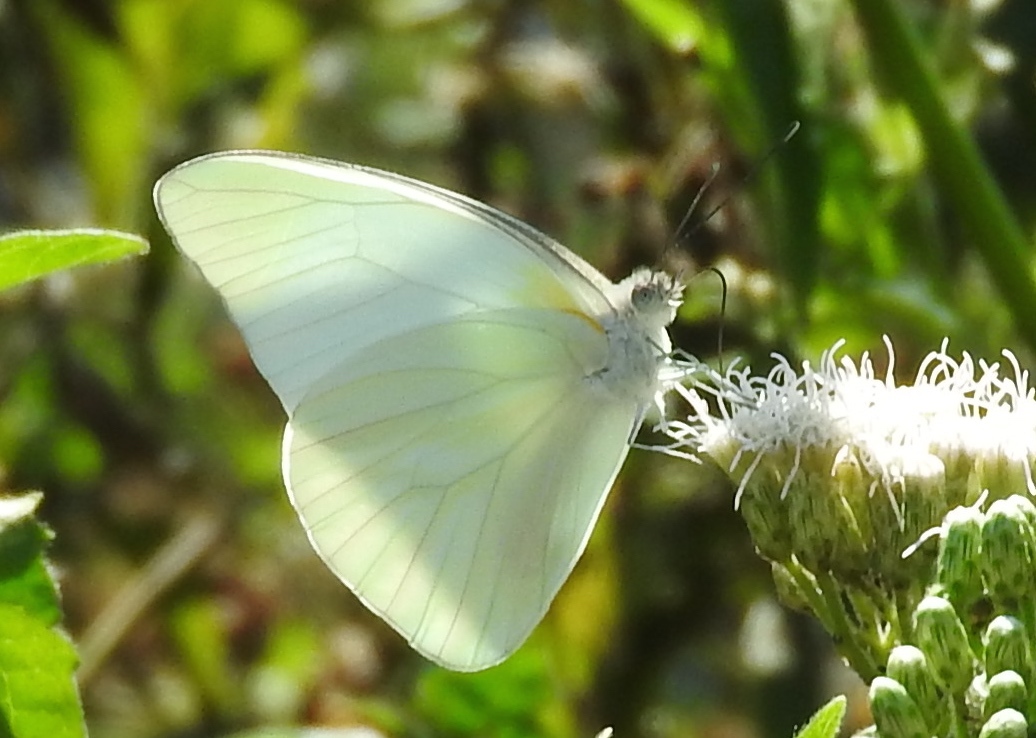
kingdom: Animalia
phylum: Arthropoda
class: Insecta
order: Lepidoptera
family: Pieridae
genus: Glutophrissa
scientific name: Glutophrissa drusilla
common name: Florida white
